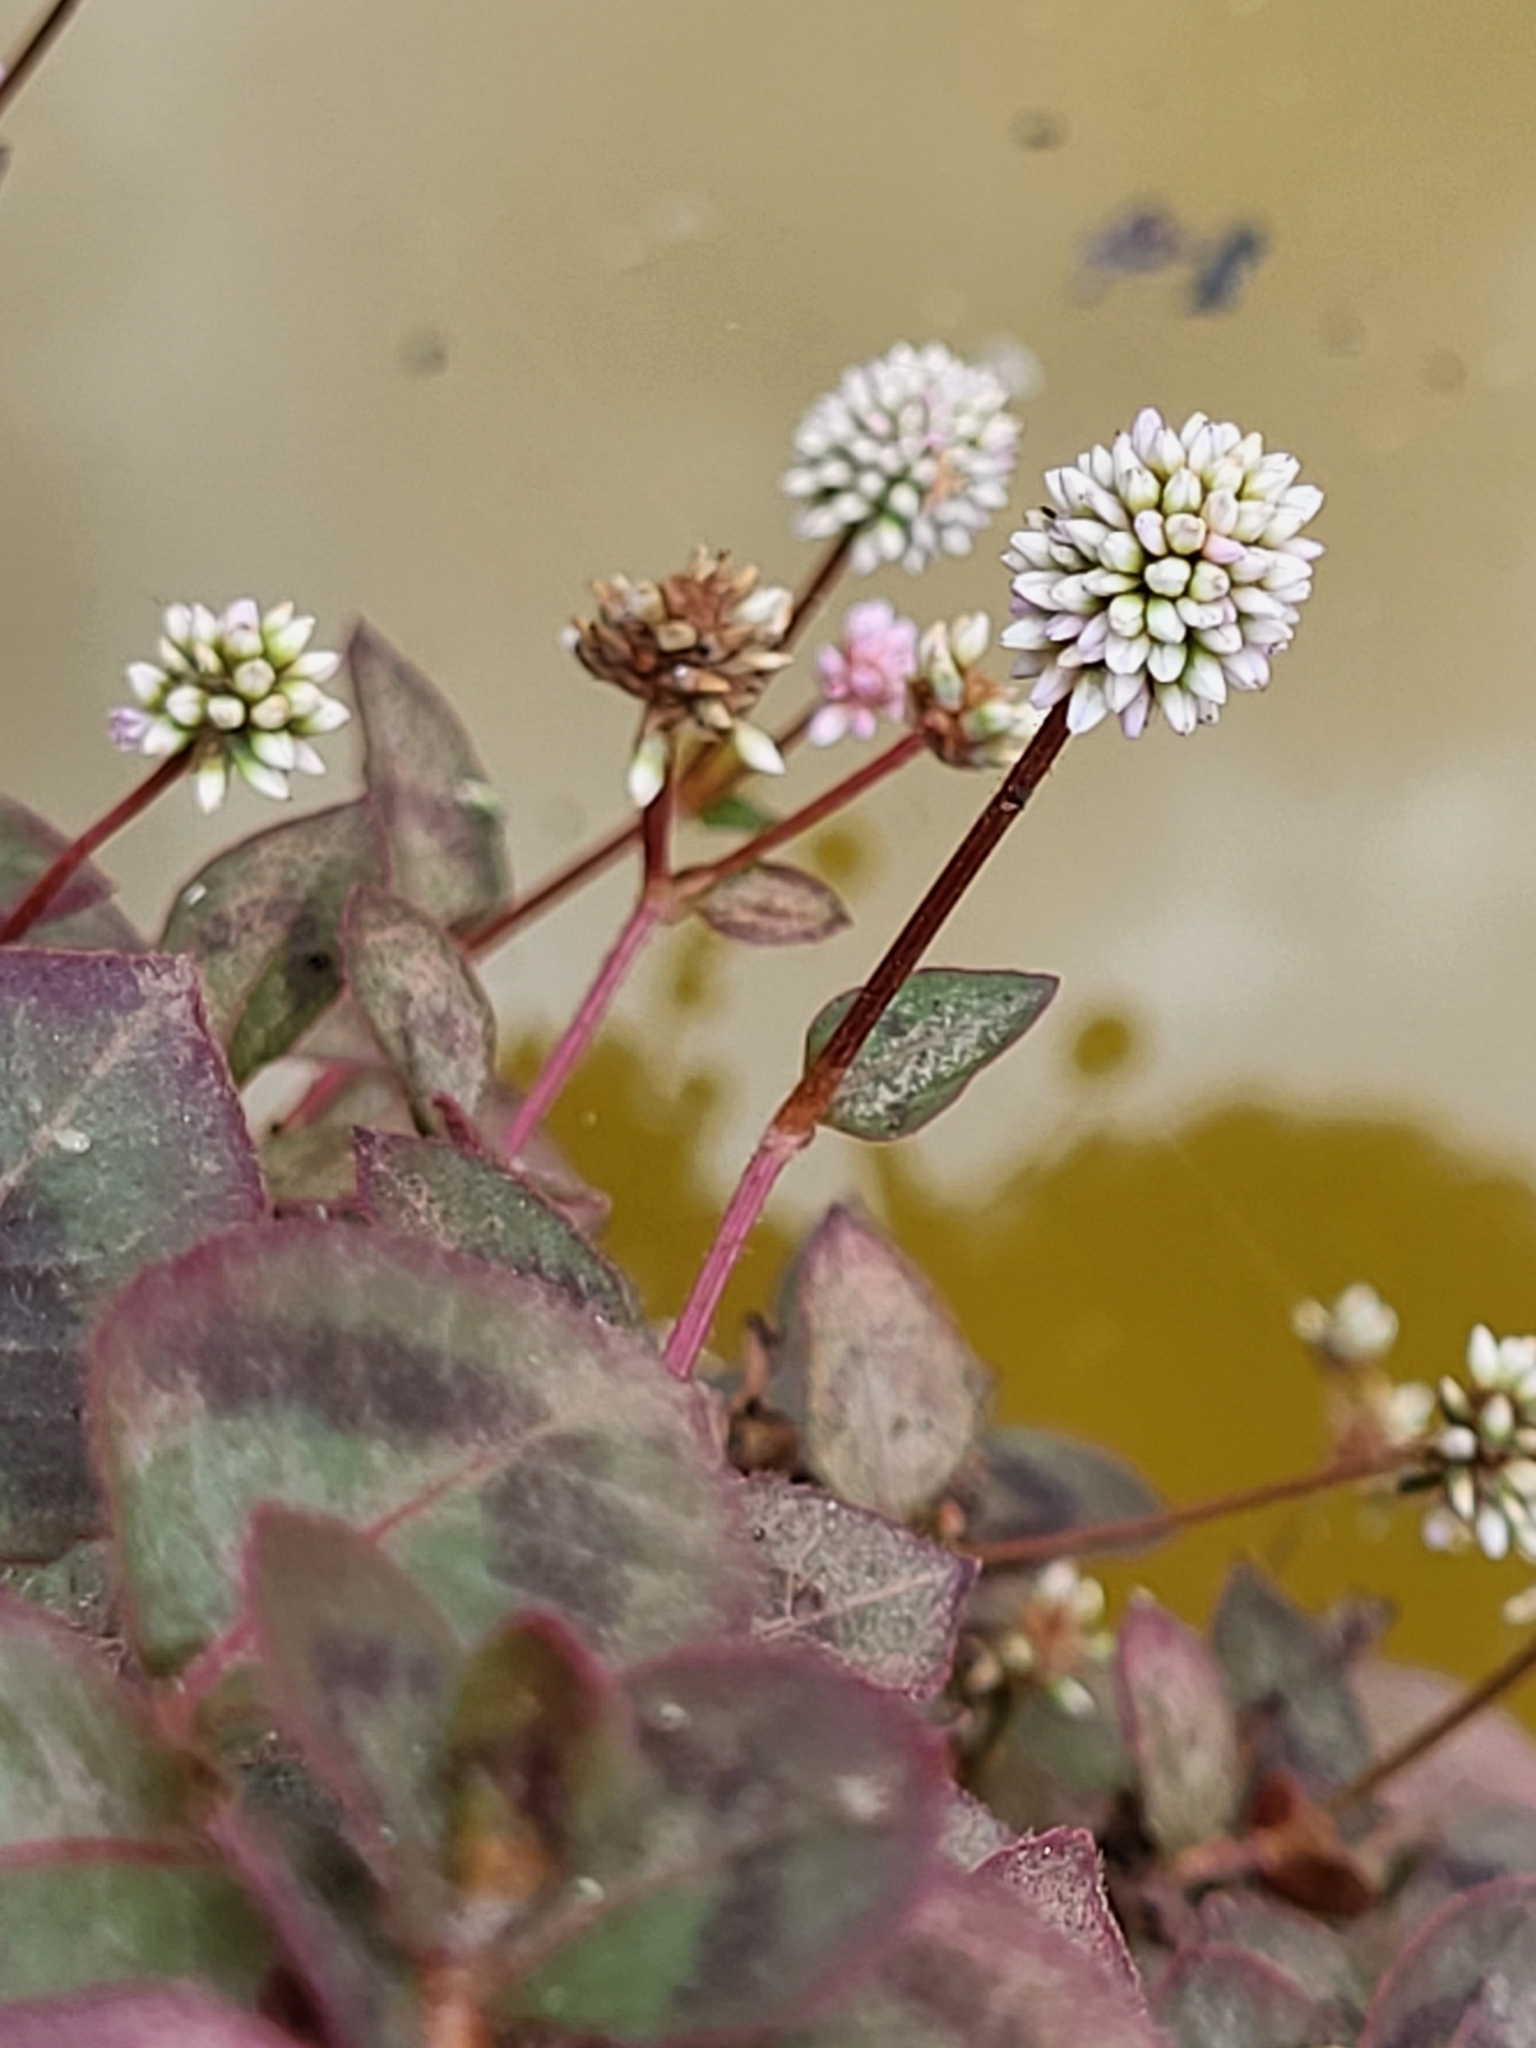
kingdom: Plantae
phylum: Tracheophyta
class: Magnoliopsida
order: Caryophyllales
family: Polygonaceae
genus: Persicaria
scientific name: Persicaria capitata
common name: Pinkhead smartweed
